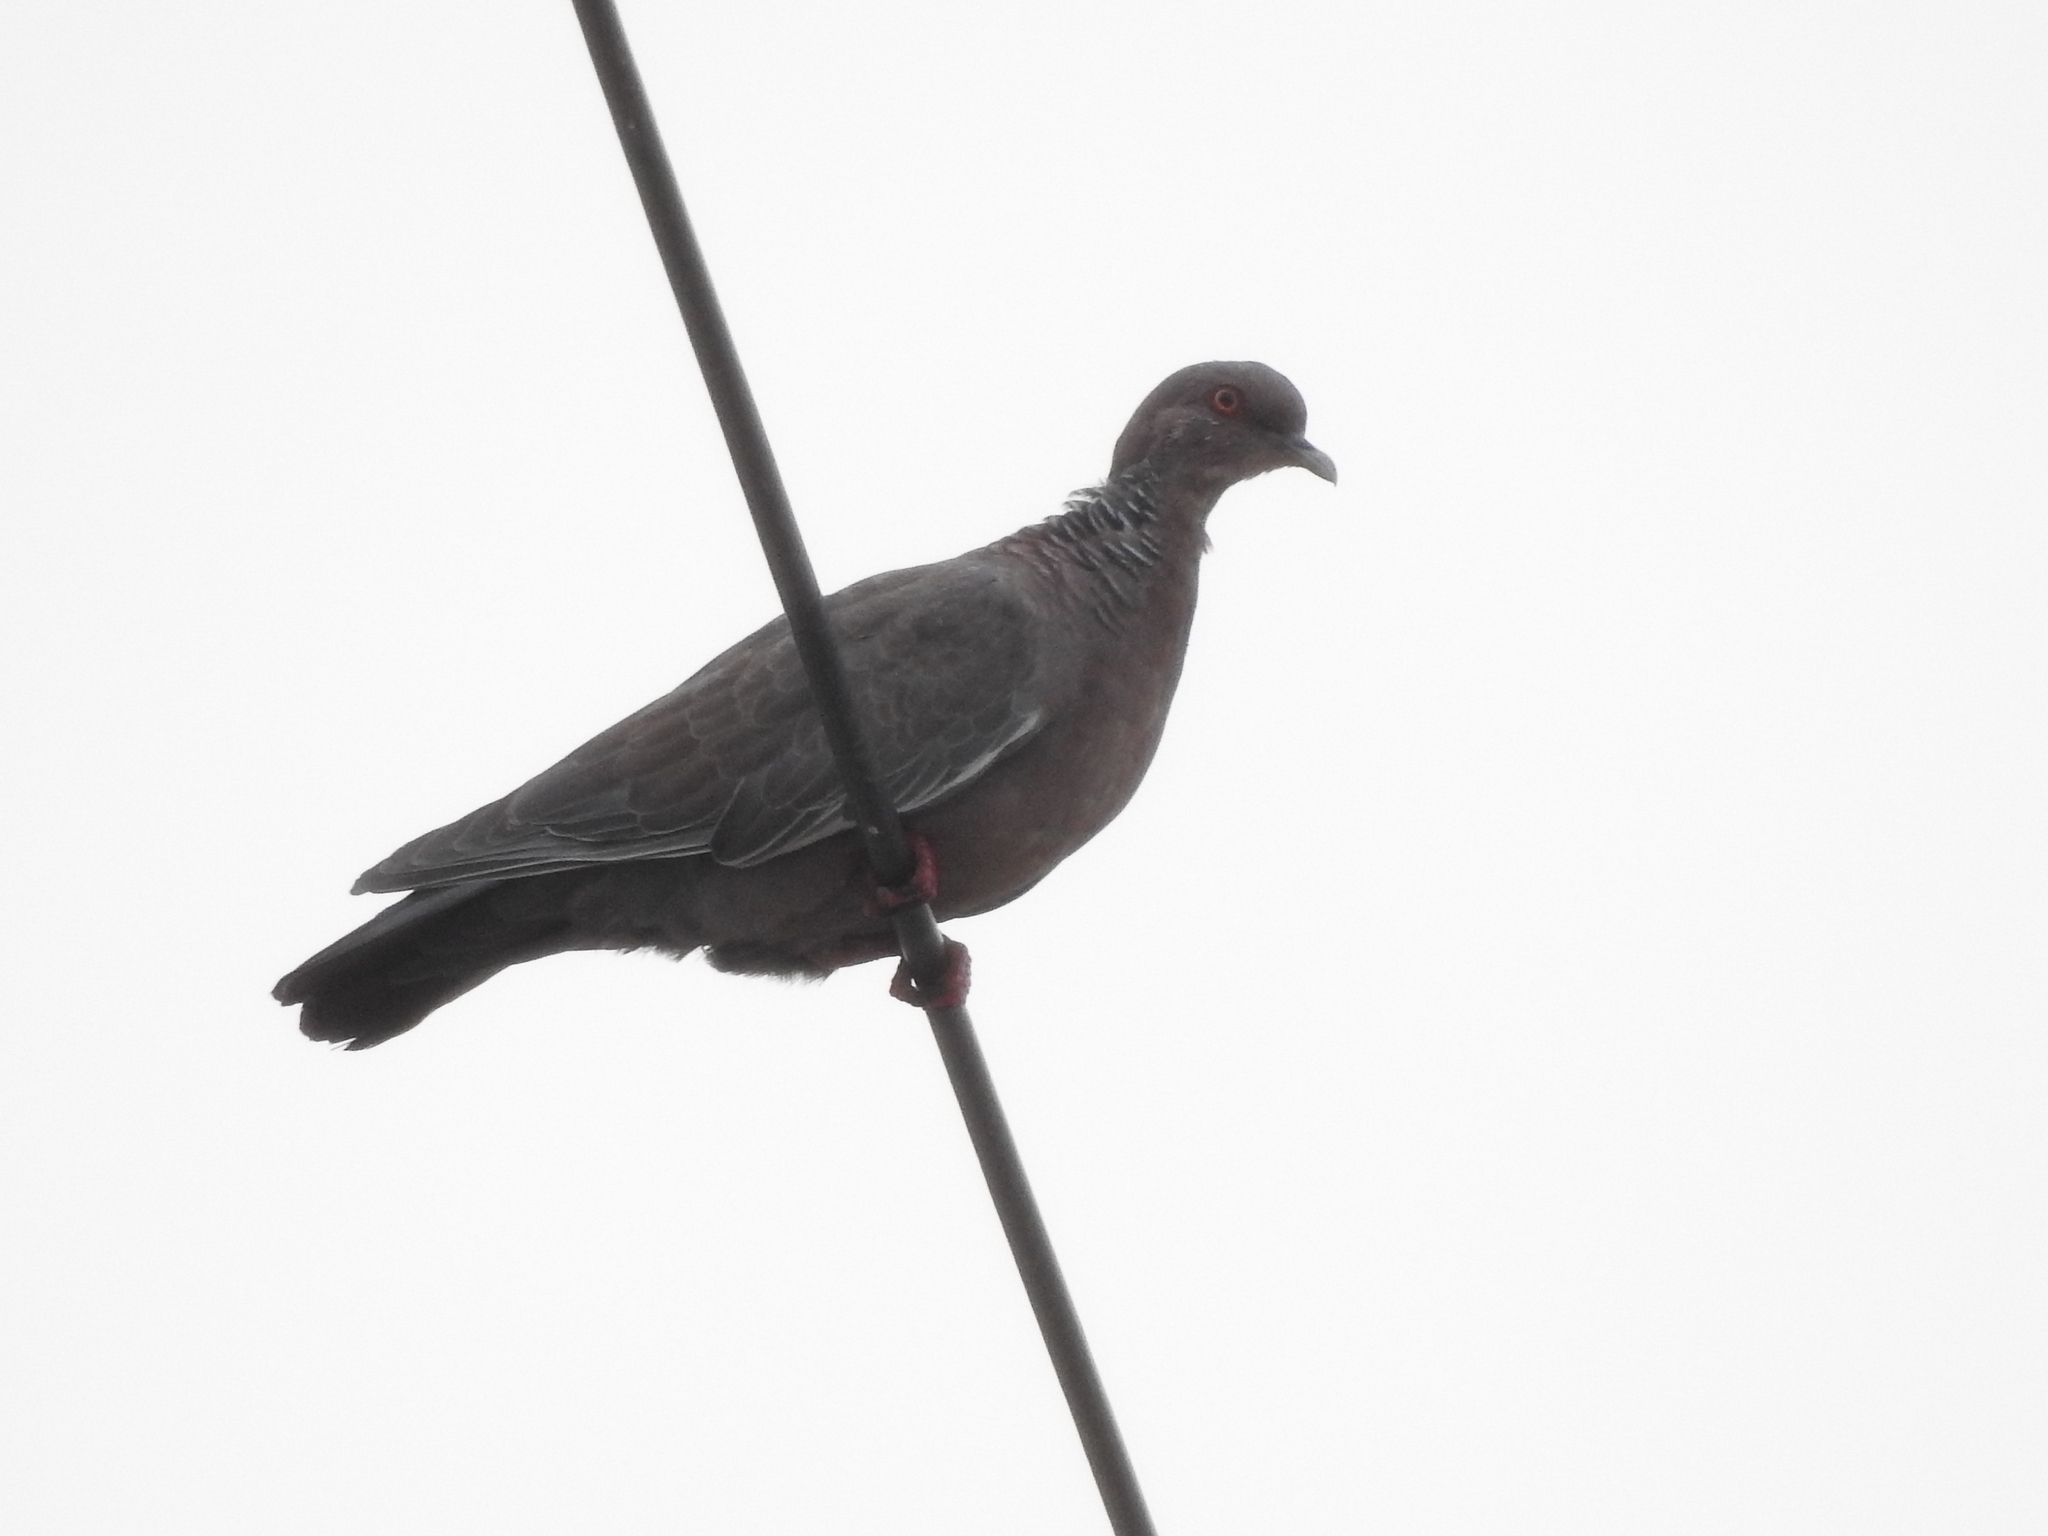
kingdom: Animalia
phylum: Chordata
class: Aves
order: Columbiformes
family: Columbidae
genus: Patagioenas
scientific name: Patagioenas picazuro
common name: Picazuro pigeon
